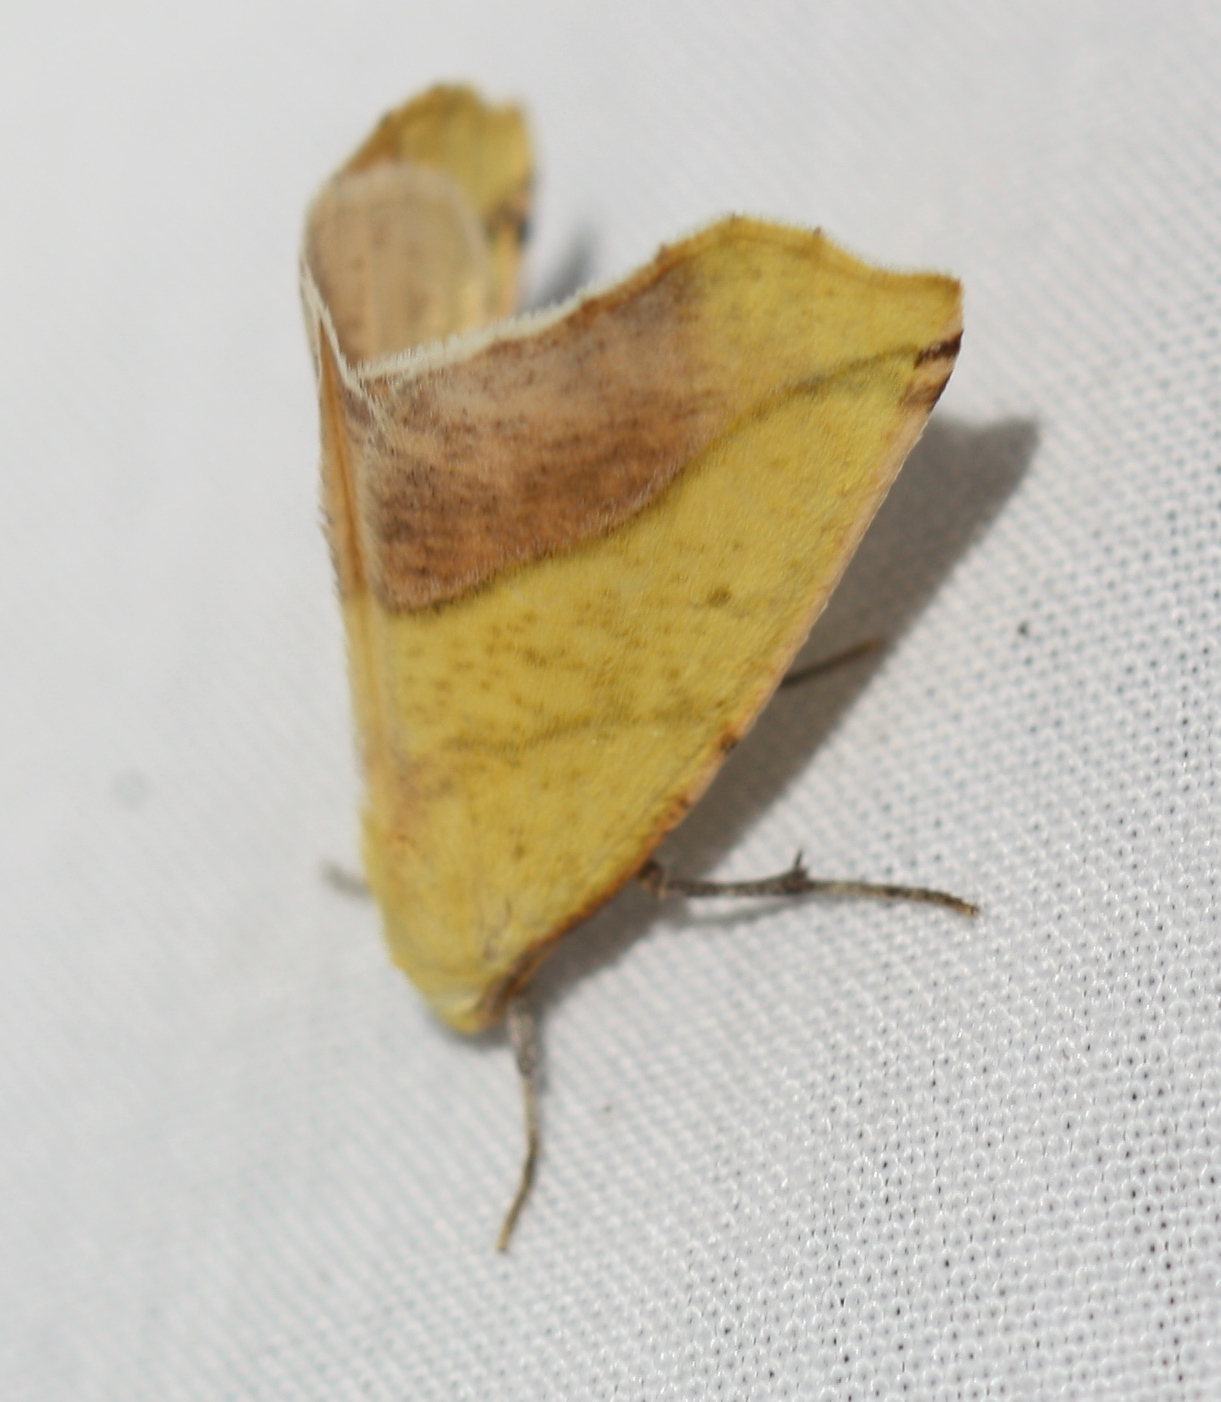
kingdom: Animalia
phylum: Arthropoda
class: Insecta
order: Lepidoptera
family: Geometridae
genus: Sicya
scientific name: Sicya macularia
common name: Sharp-lined yellow
